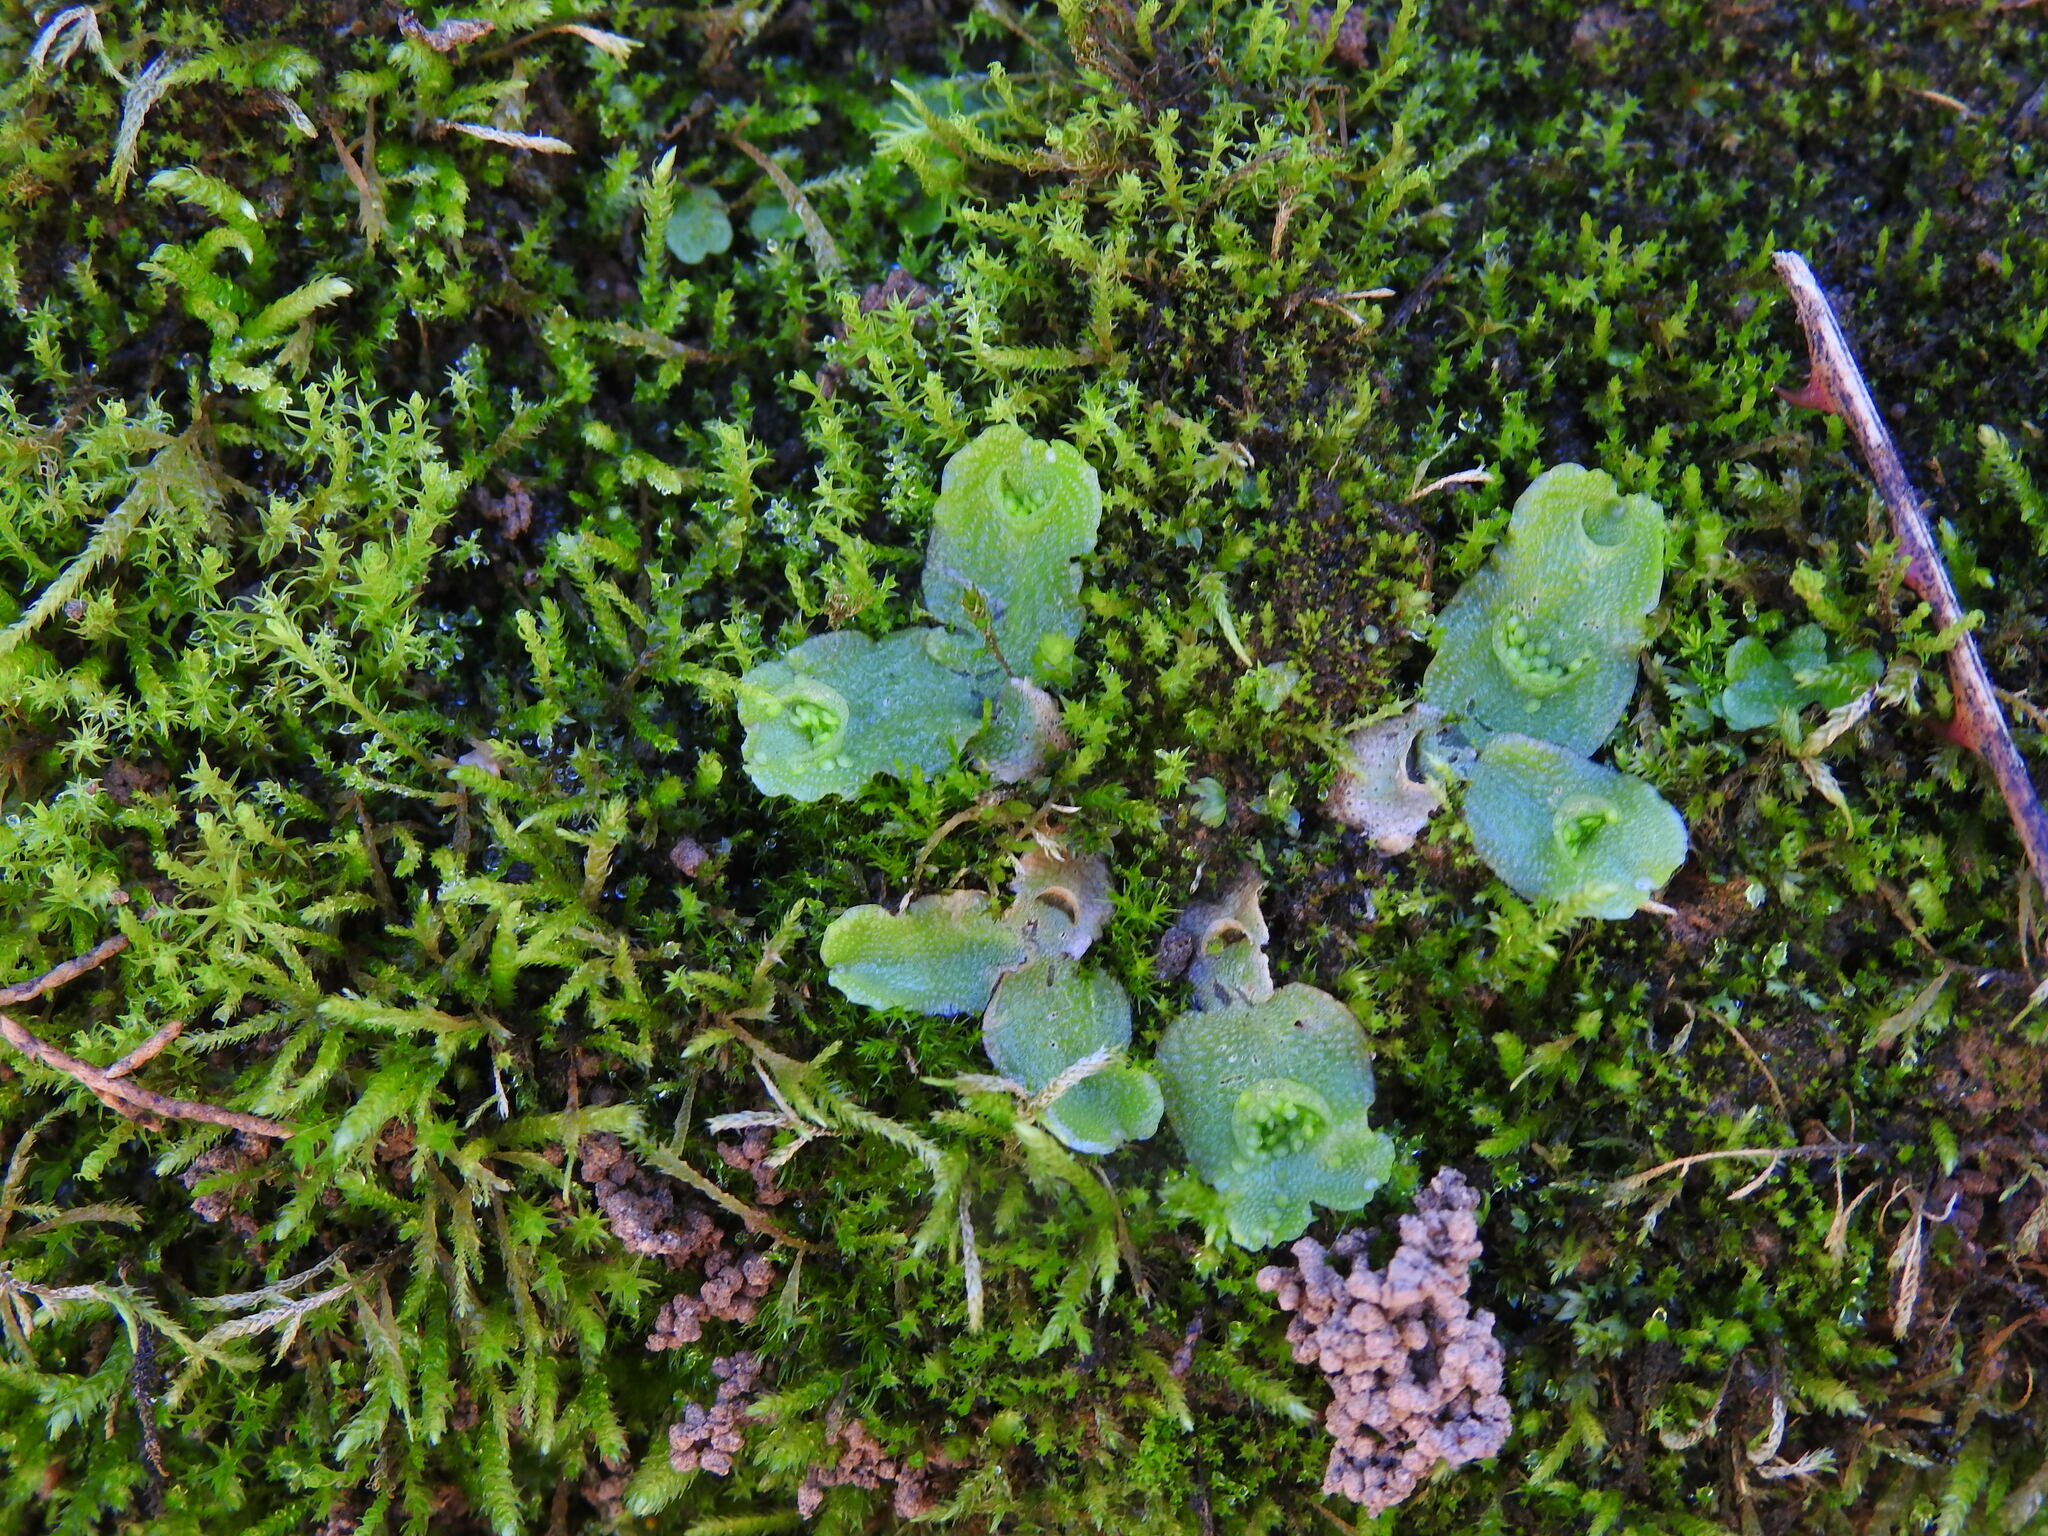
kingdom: Plantae
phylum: Marchantiophyta
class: Marchantiopsida
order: Lunulariales
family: Lunulariaceae
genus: Lunularia
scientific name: Lunularia cruciata
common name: Crescent-cup liverwort
